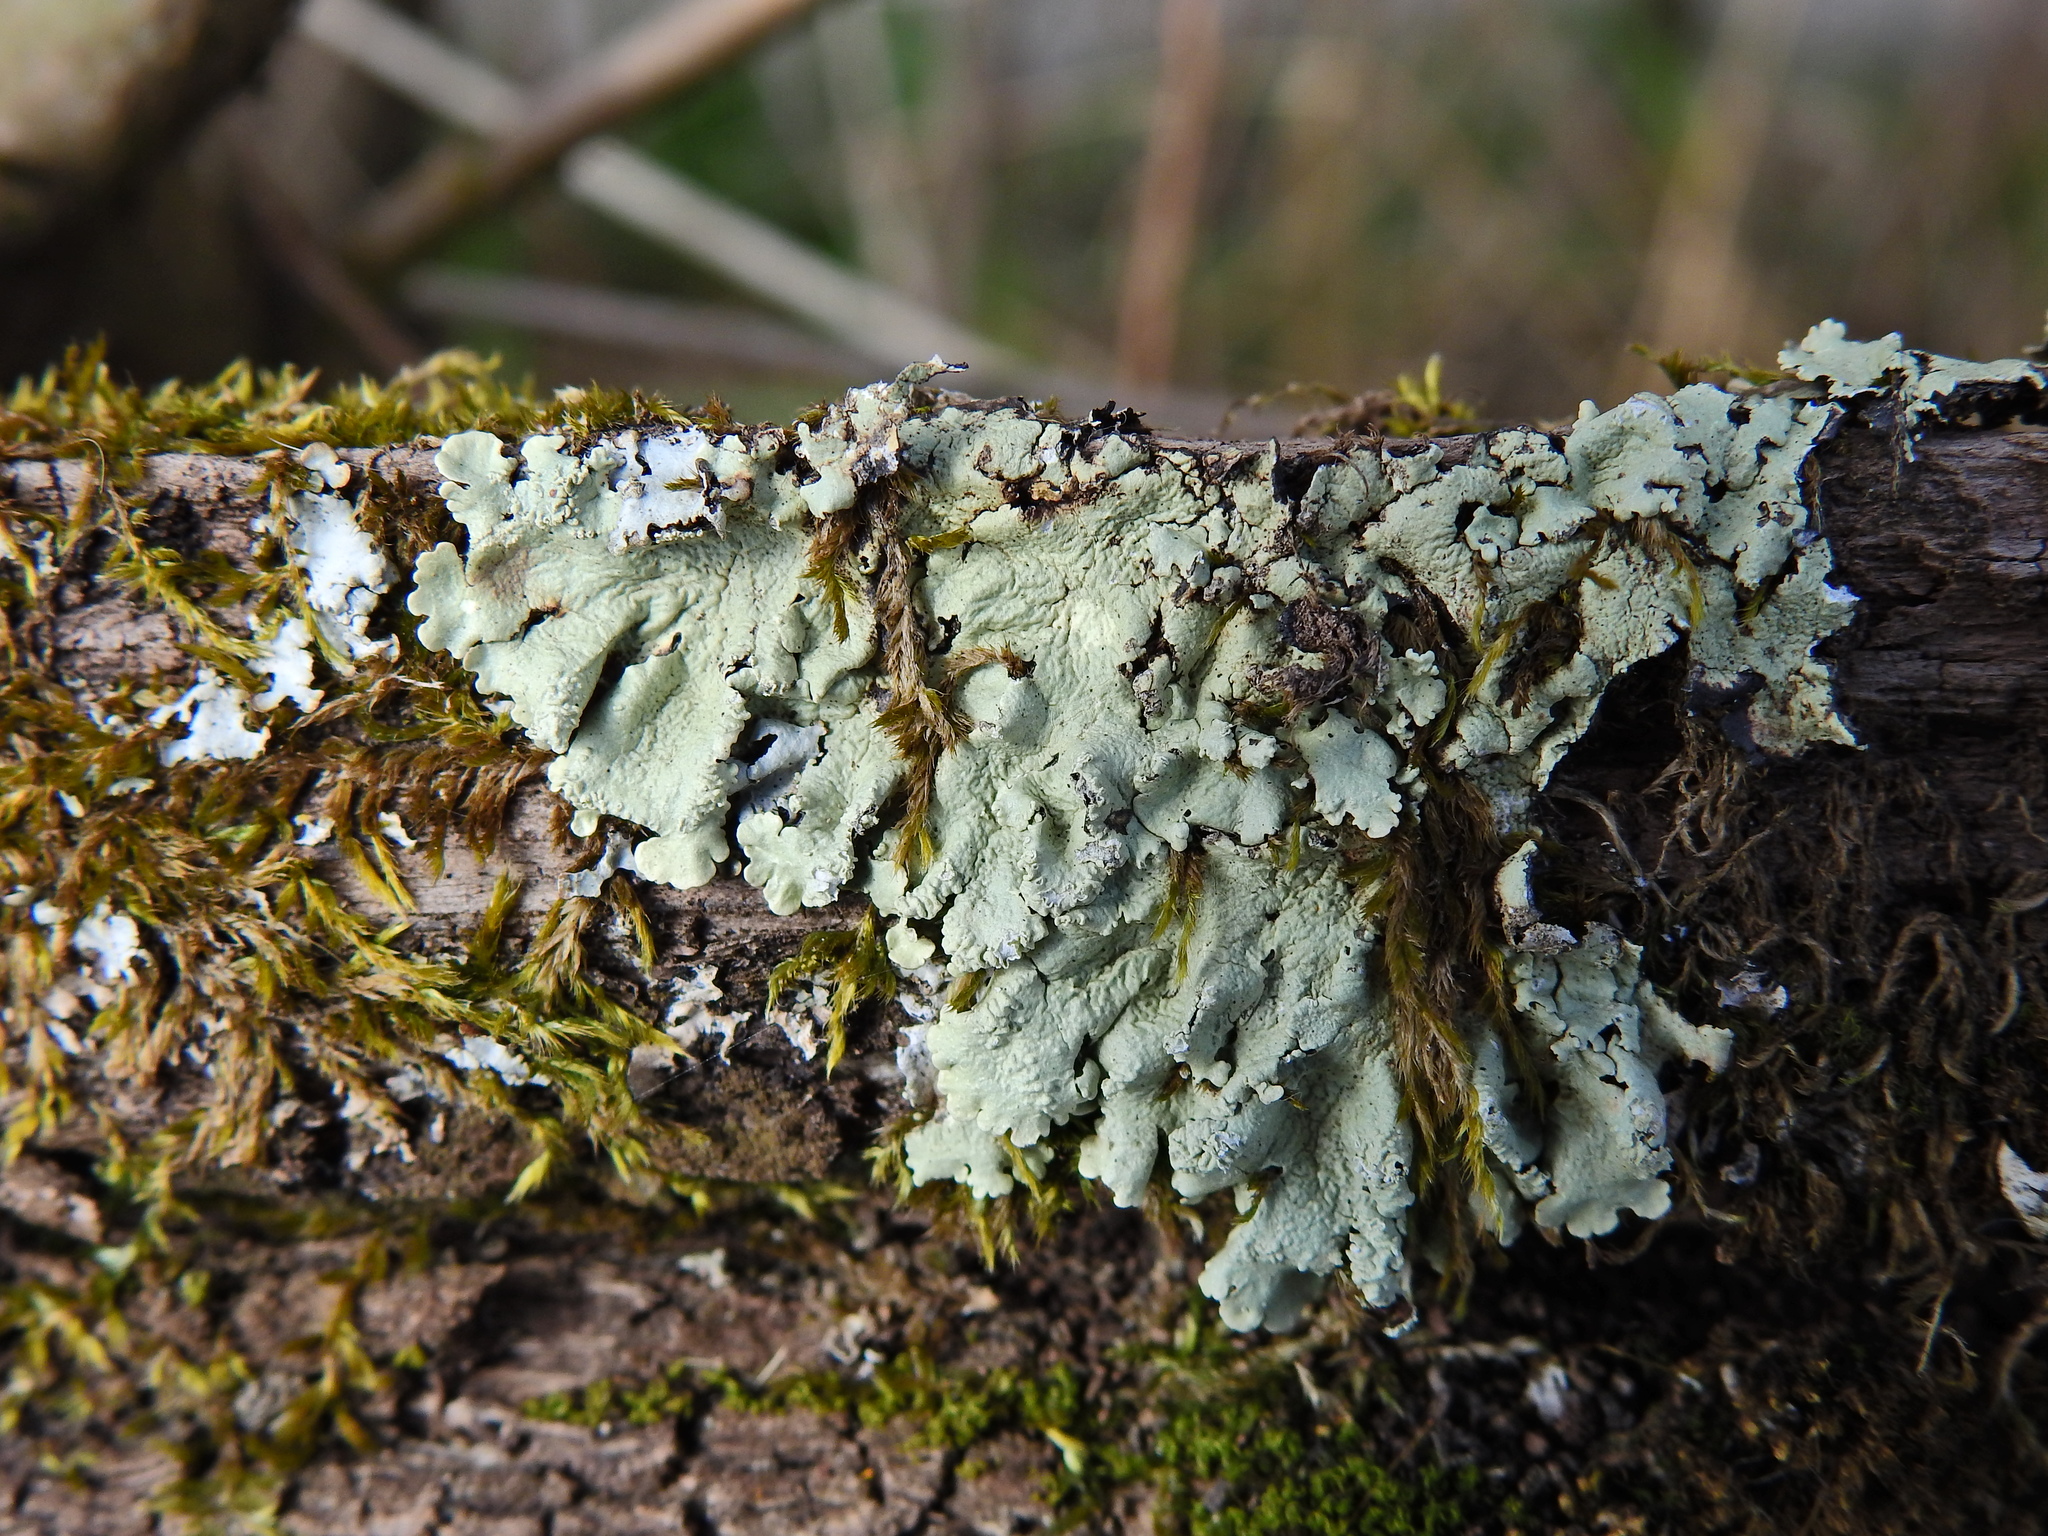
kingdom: Fungi
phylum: Ascomycota
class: Lecanoromycetes
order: Lecanorales
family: Parmeliaceae
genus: Flavoparmelia
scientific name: Flavoparmelia caperata
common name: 40-mile per hour lichen
